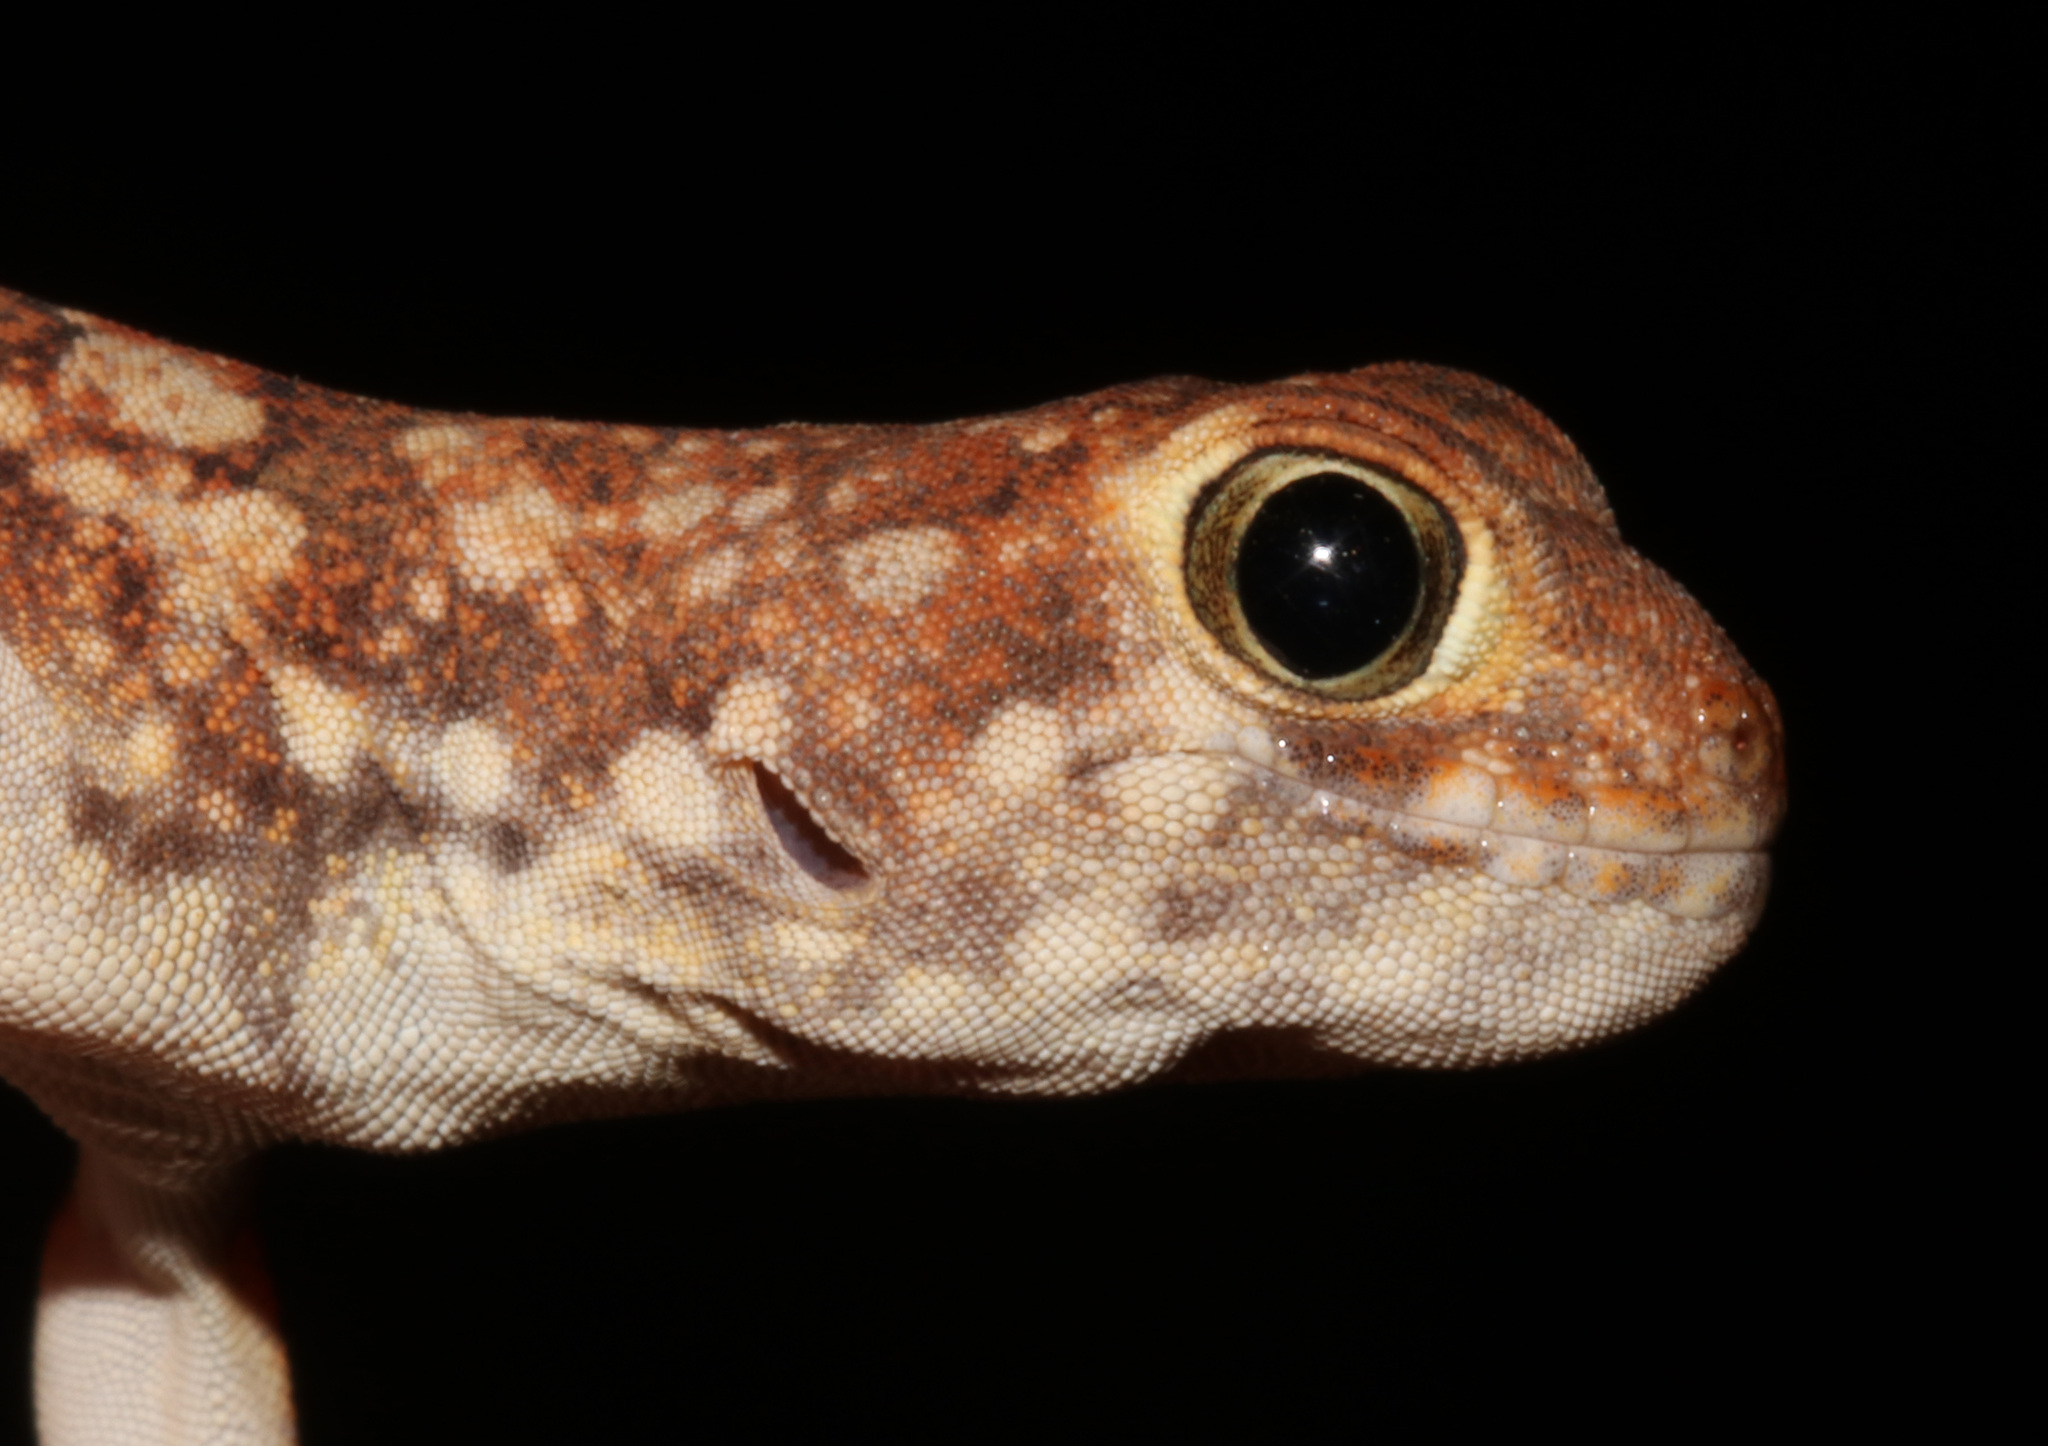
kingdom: Animalia
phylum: Chordata
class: Squamata
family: Gekkonidae
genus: Ptenopus
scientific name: Ptenopus garrulus
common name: Whistling gecko
